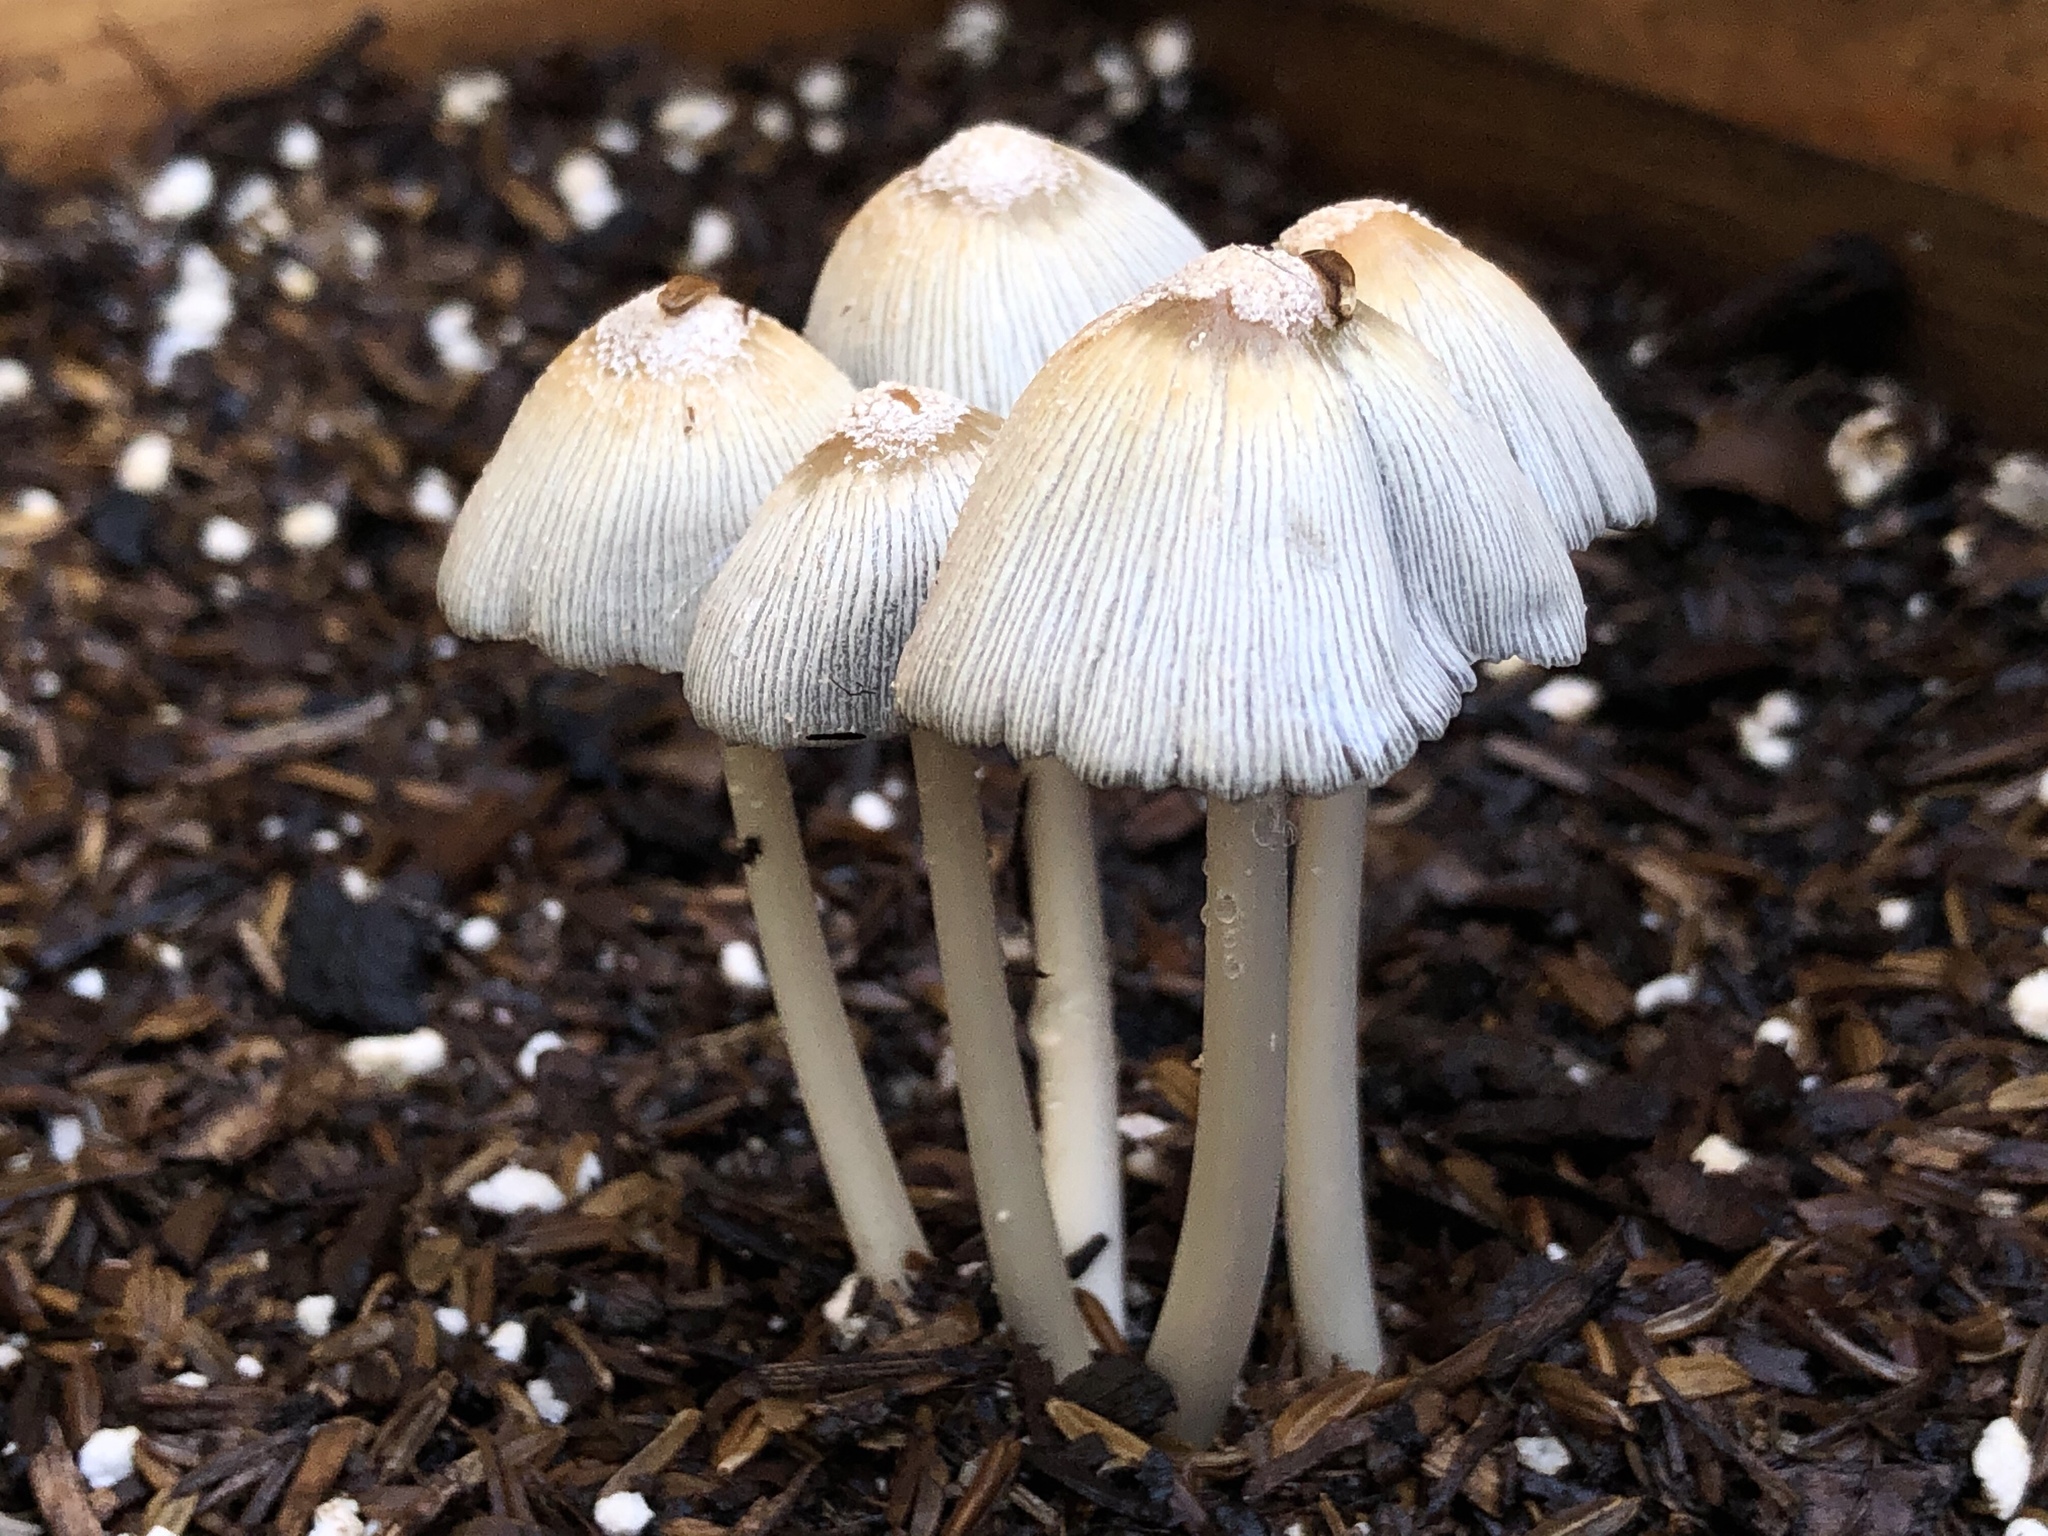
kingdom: Fungi
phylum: Basidiomycota
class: Agaricomycetes
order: Agaricales
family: Psathyrellaceae
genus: Coprinellus
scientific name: Coprinellus flocculosus
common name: Flocculose inkcap
